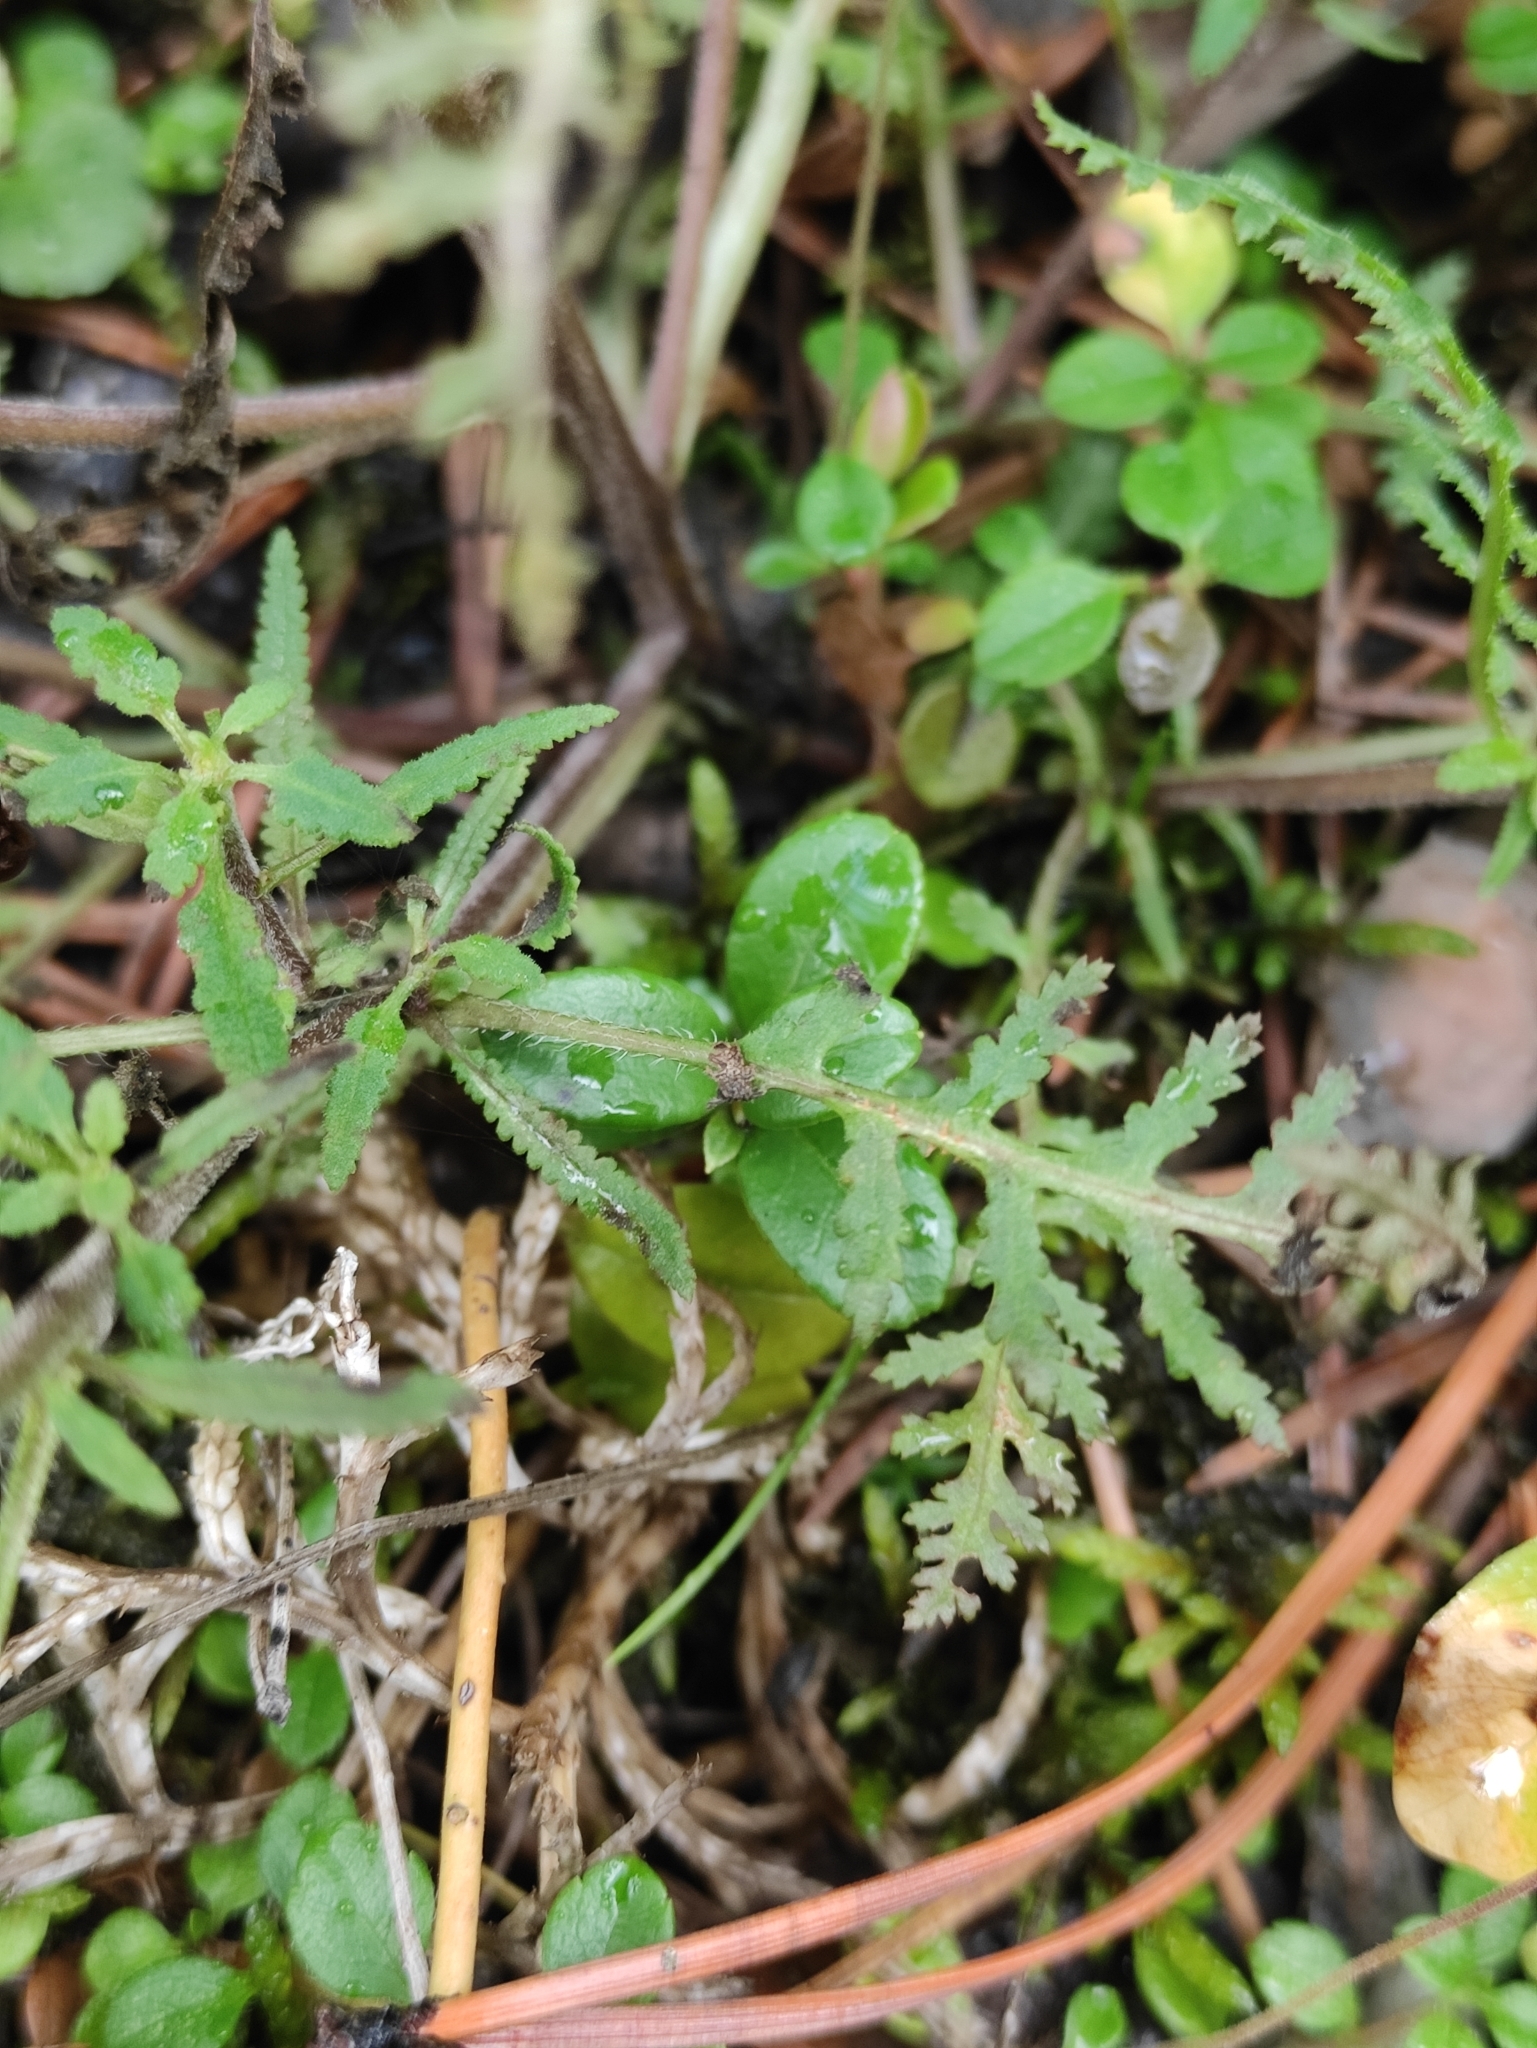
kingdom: Plantae
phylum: Tracheophyta
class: Magnoliopsida
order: Lamiales
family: Orobanchaceae
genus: Pedicularis
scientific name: Pedicularis labradorica
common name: Labrador lousewort
